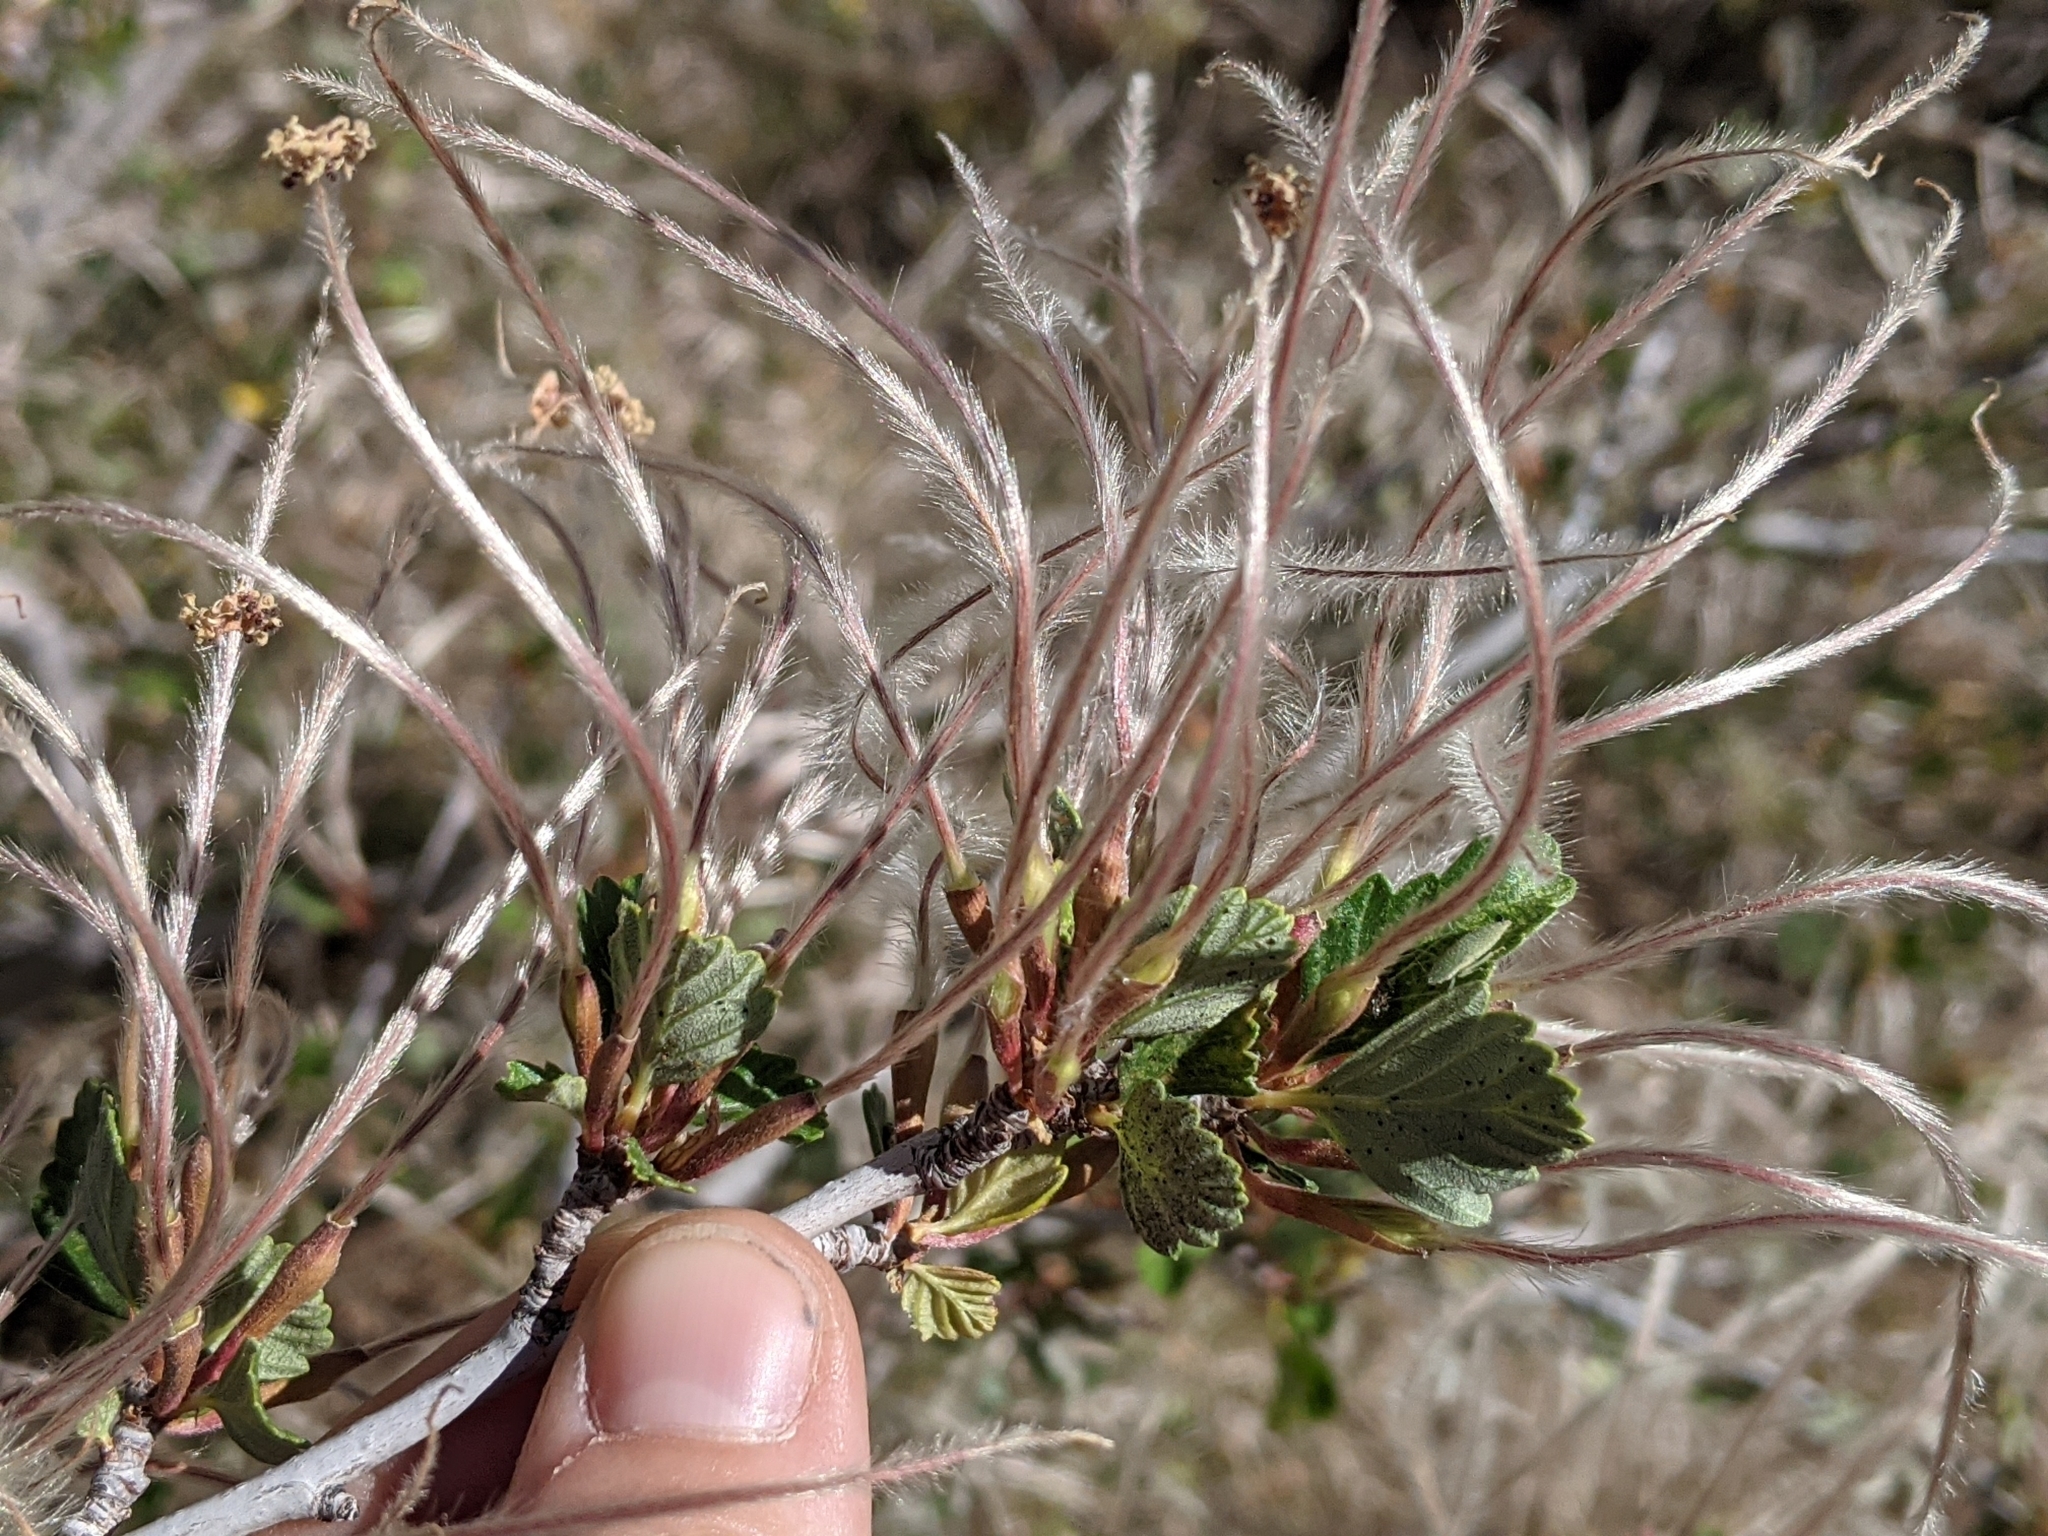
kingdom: Plantae
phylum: Tracheophyta
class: Magnoliopsida
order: Rosales
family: Rosaceae
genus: Cercocarpus
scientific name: Cercocarpus montanus
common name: Alder-leaf cercocarpus
